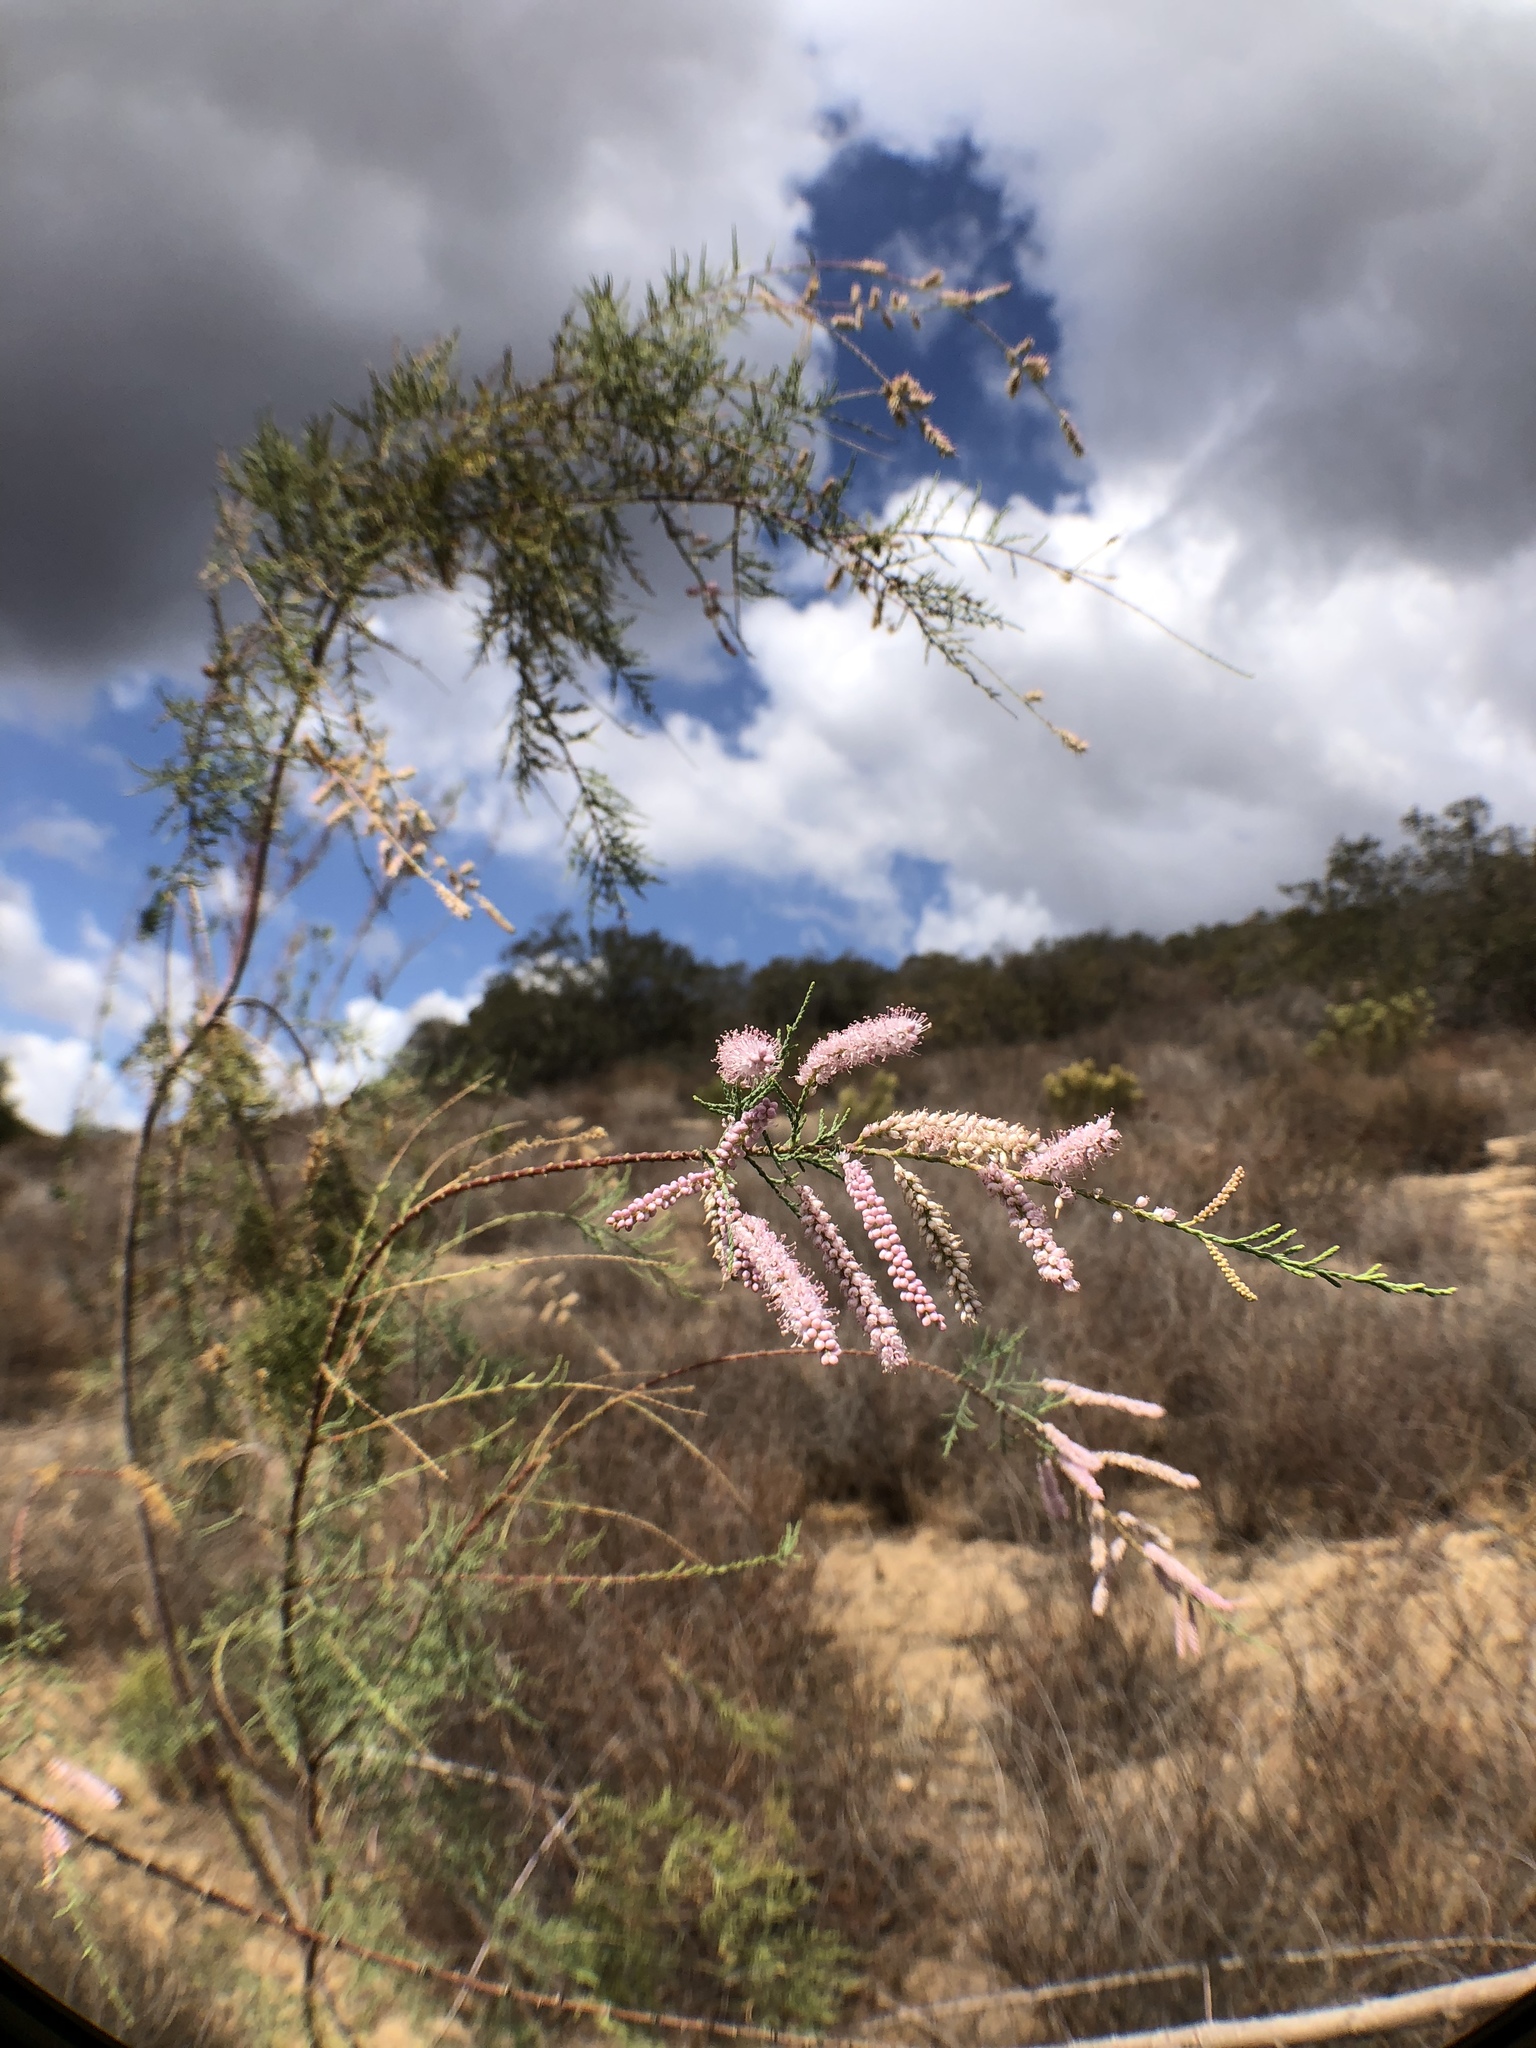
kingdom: Plantae
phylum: Tracheophyta
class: Magnoliopsida
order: Caryophyllales
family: Tamaricaceae
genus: Tamarix
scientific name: Tamarix ramosissima
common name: Pink tamarisk
